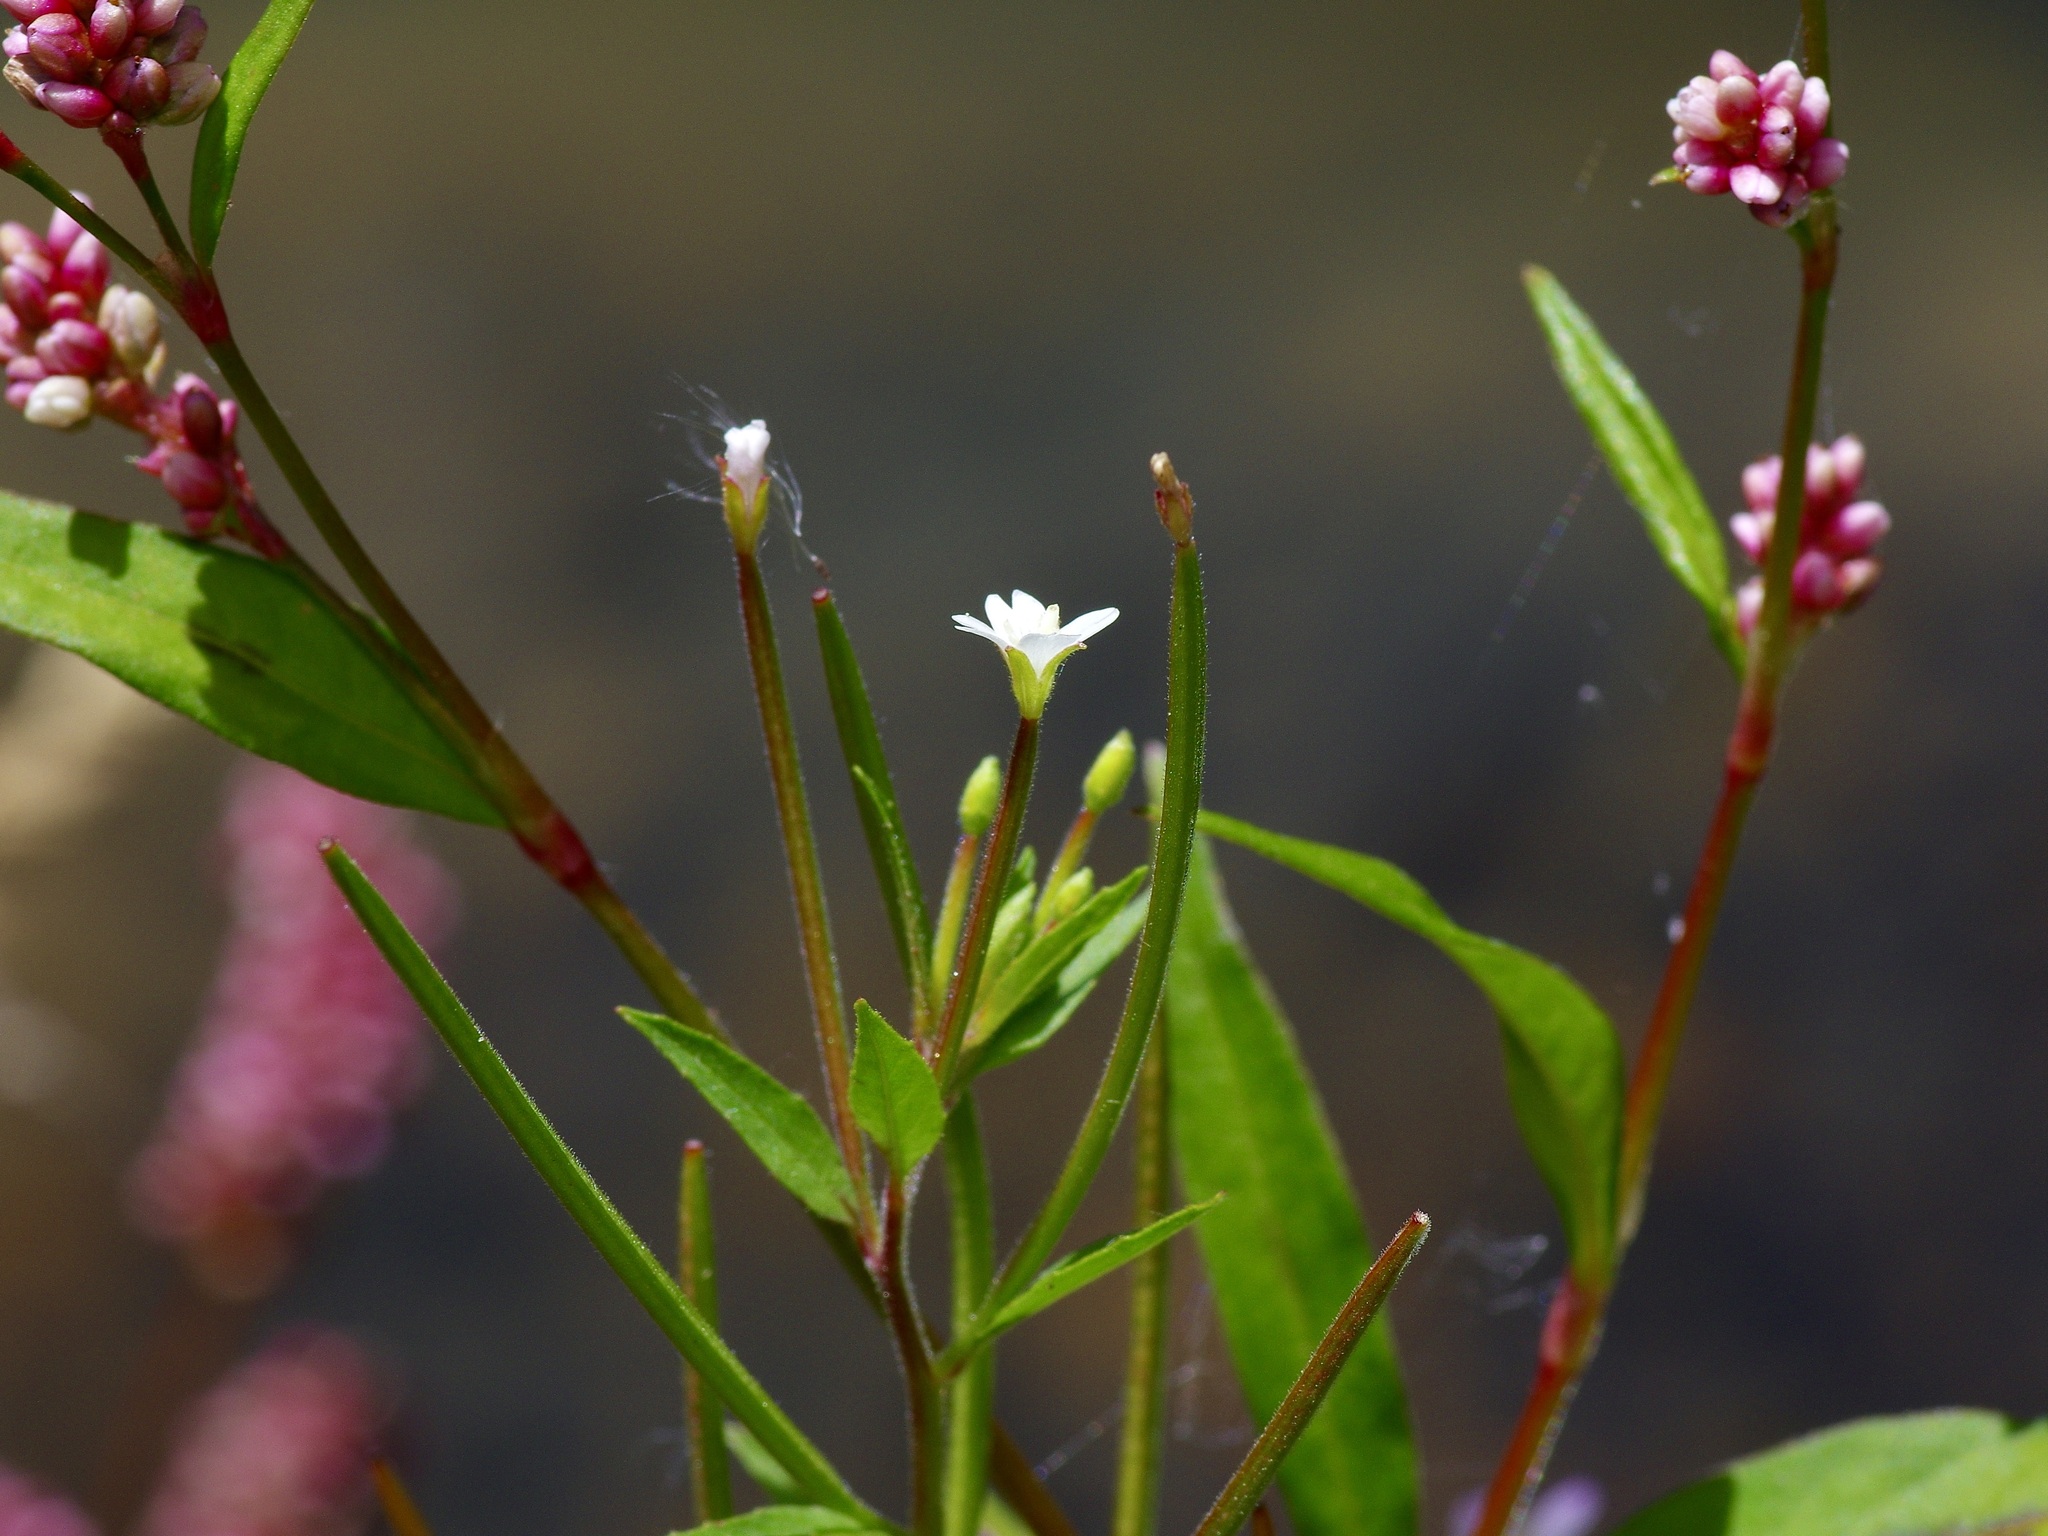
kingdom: Plantae
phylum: Tracheophyta
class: Magnoliopsida
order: Myrtales
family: Onagraceae
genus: Epilobium
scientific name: Epilobium ciliatum
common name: American willowherb
